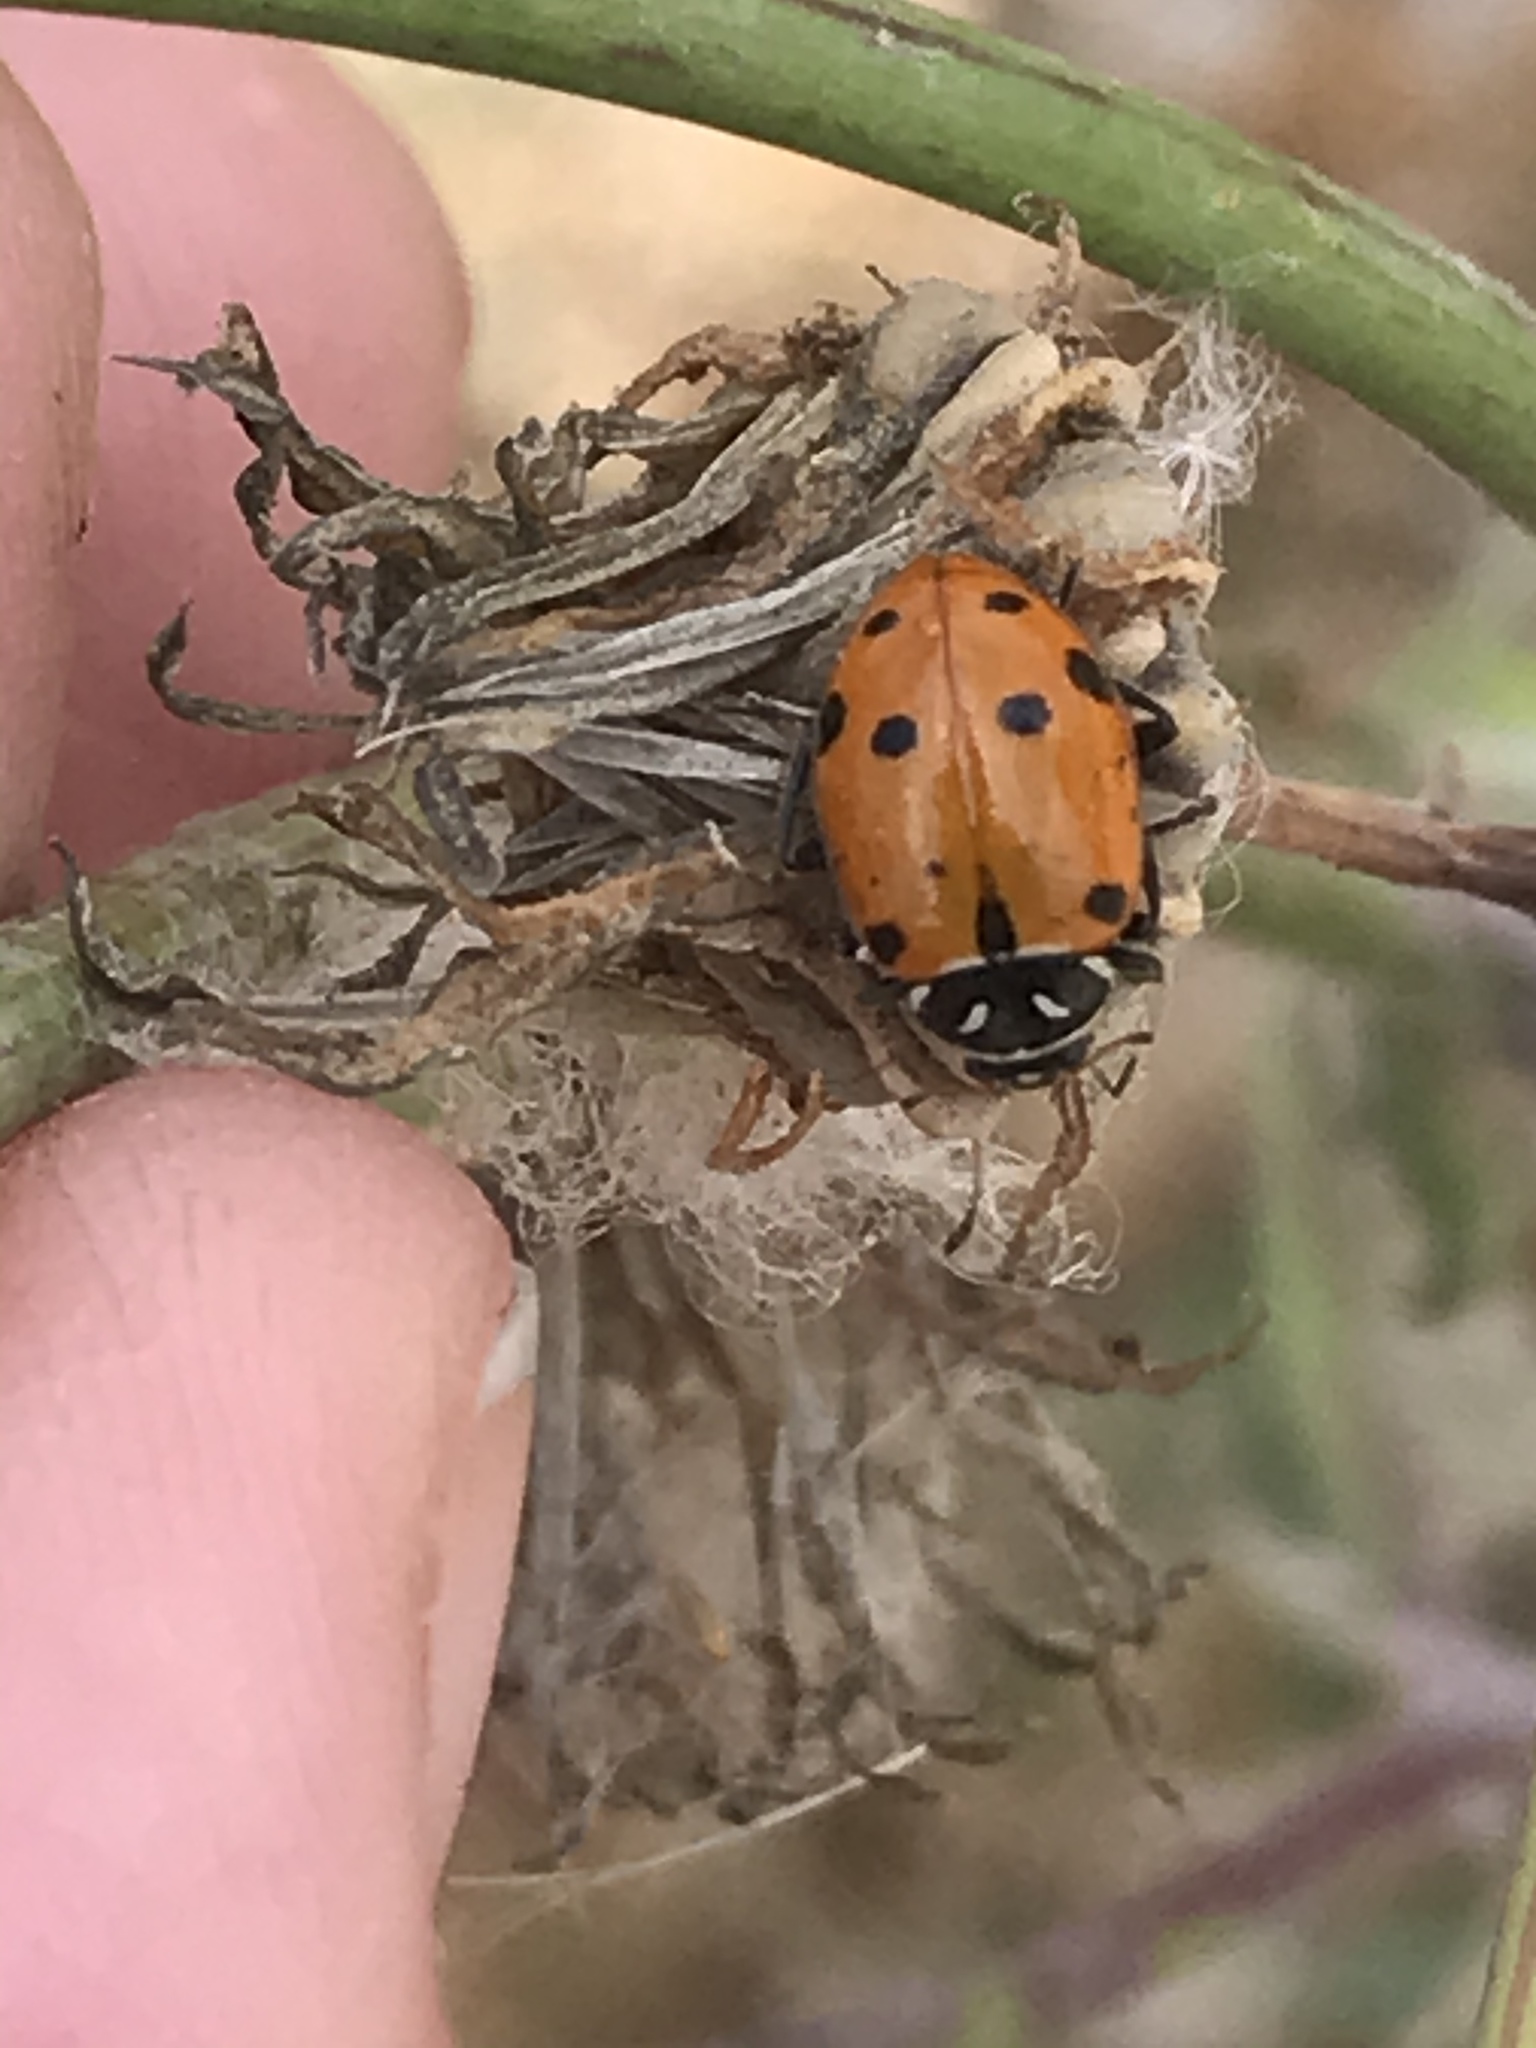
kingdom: Animalia
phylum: Arthropoda
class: Insecta
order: Coleoptera
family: Coccinellidae
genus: Hippodamia
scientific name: Hippodamia convergens
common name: Convergent lady beetle
